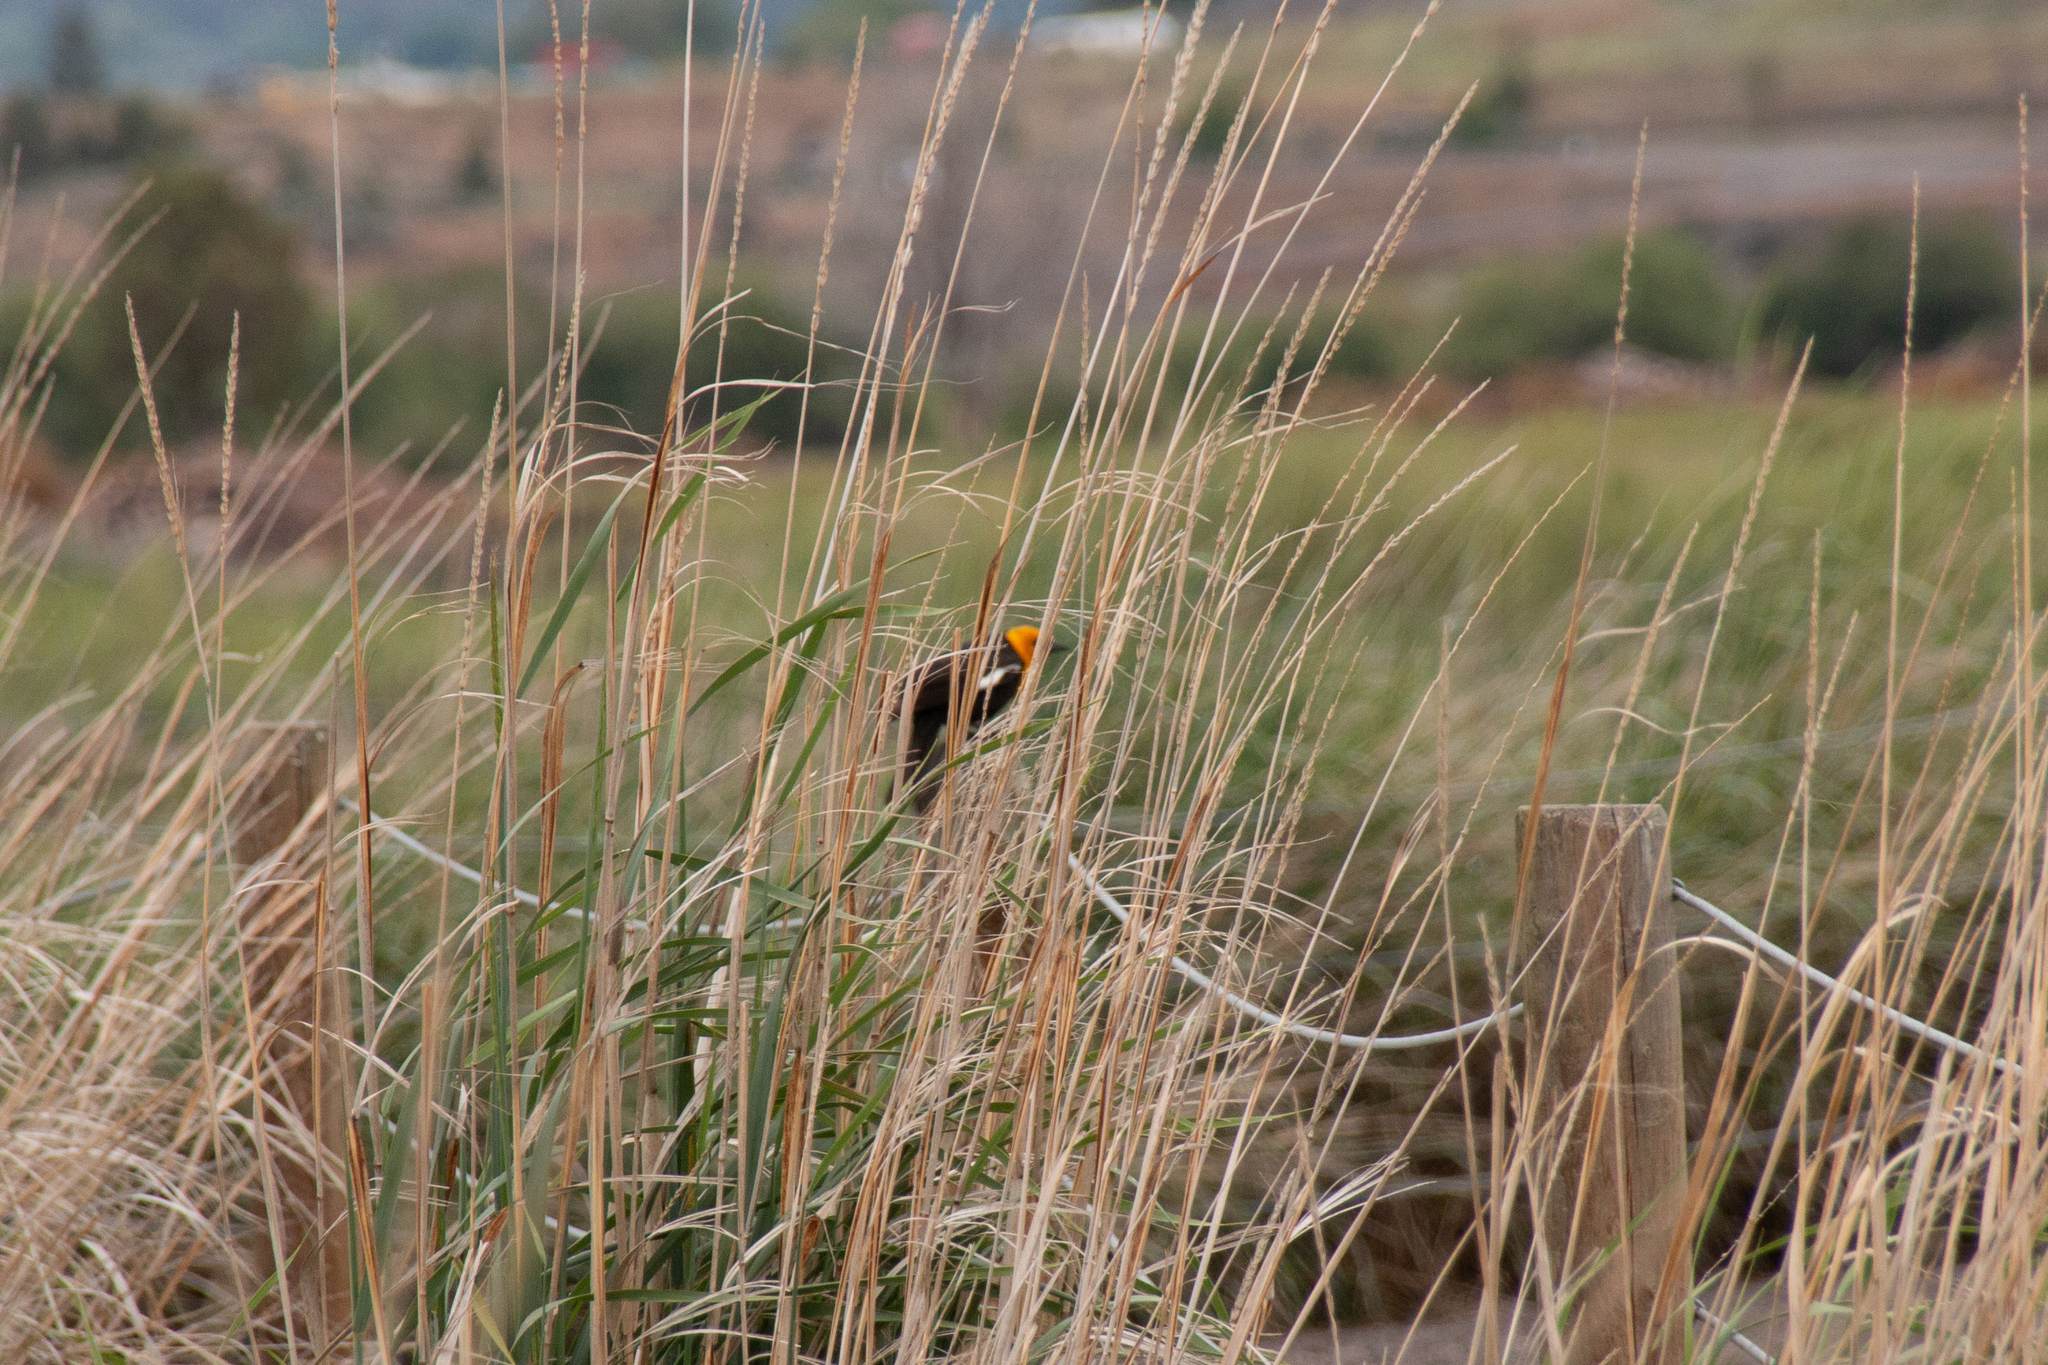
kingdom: Animalia
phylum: Chordata
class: Aves
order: Passeriformes
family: Icteridae
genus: Xanthocephalus
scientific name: Xanthocephalus xanthocephalus
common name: Yellow-headed blackbird
